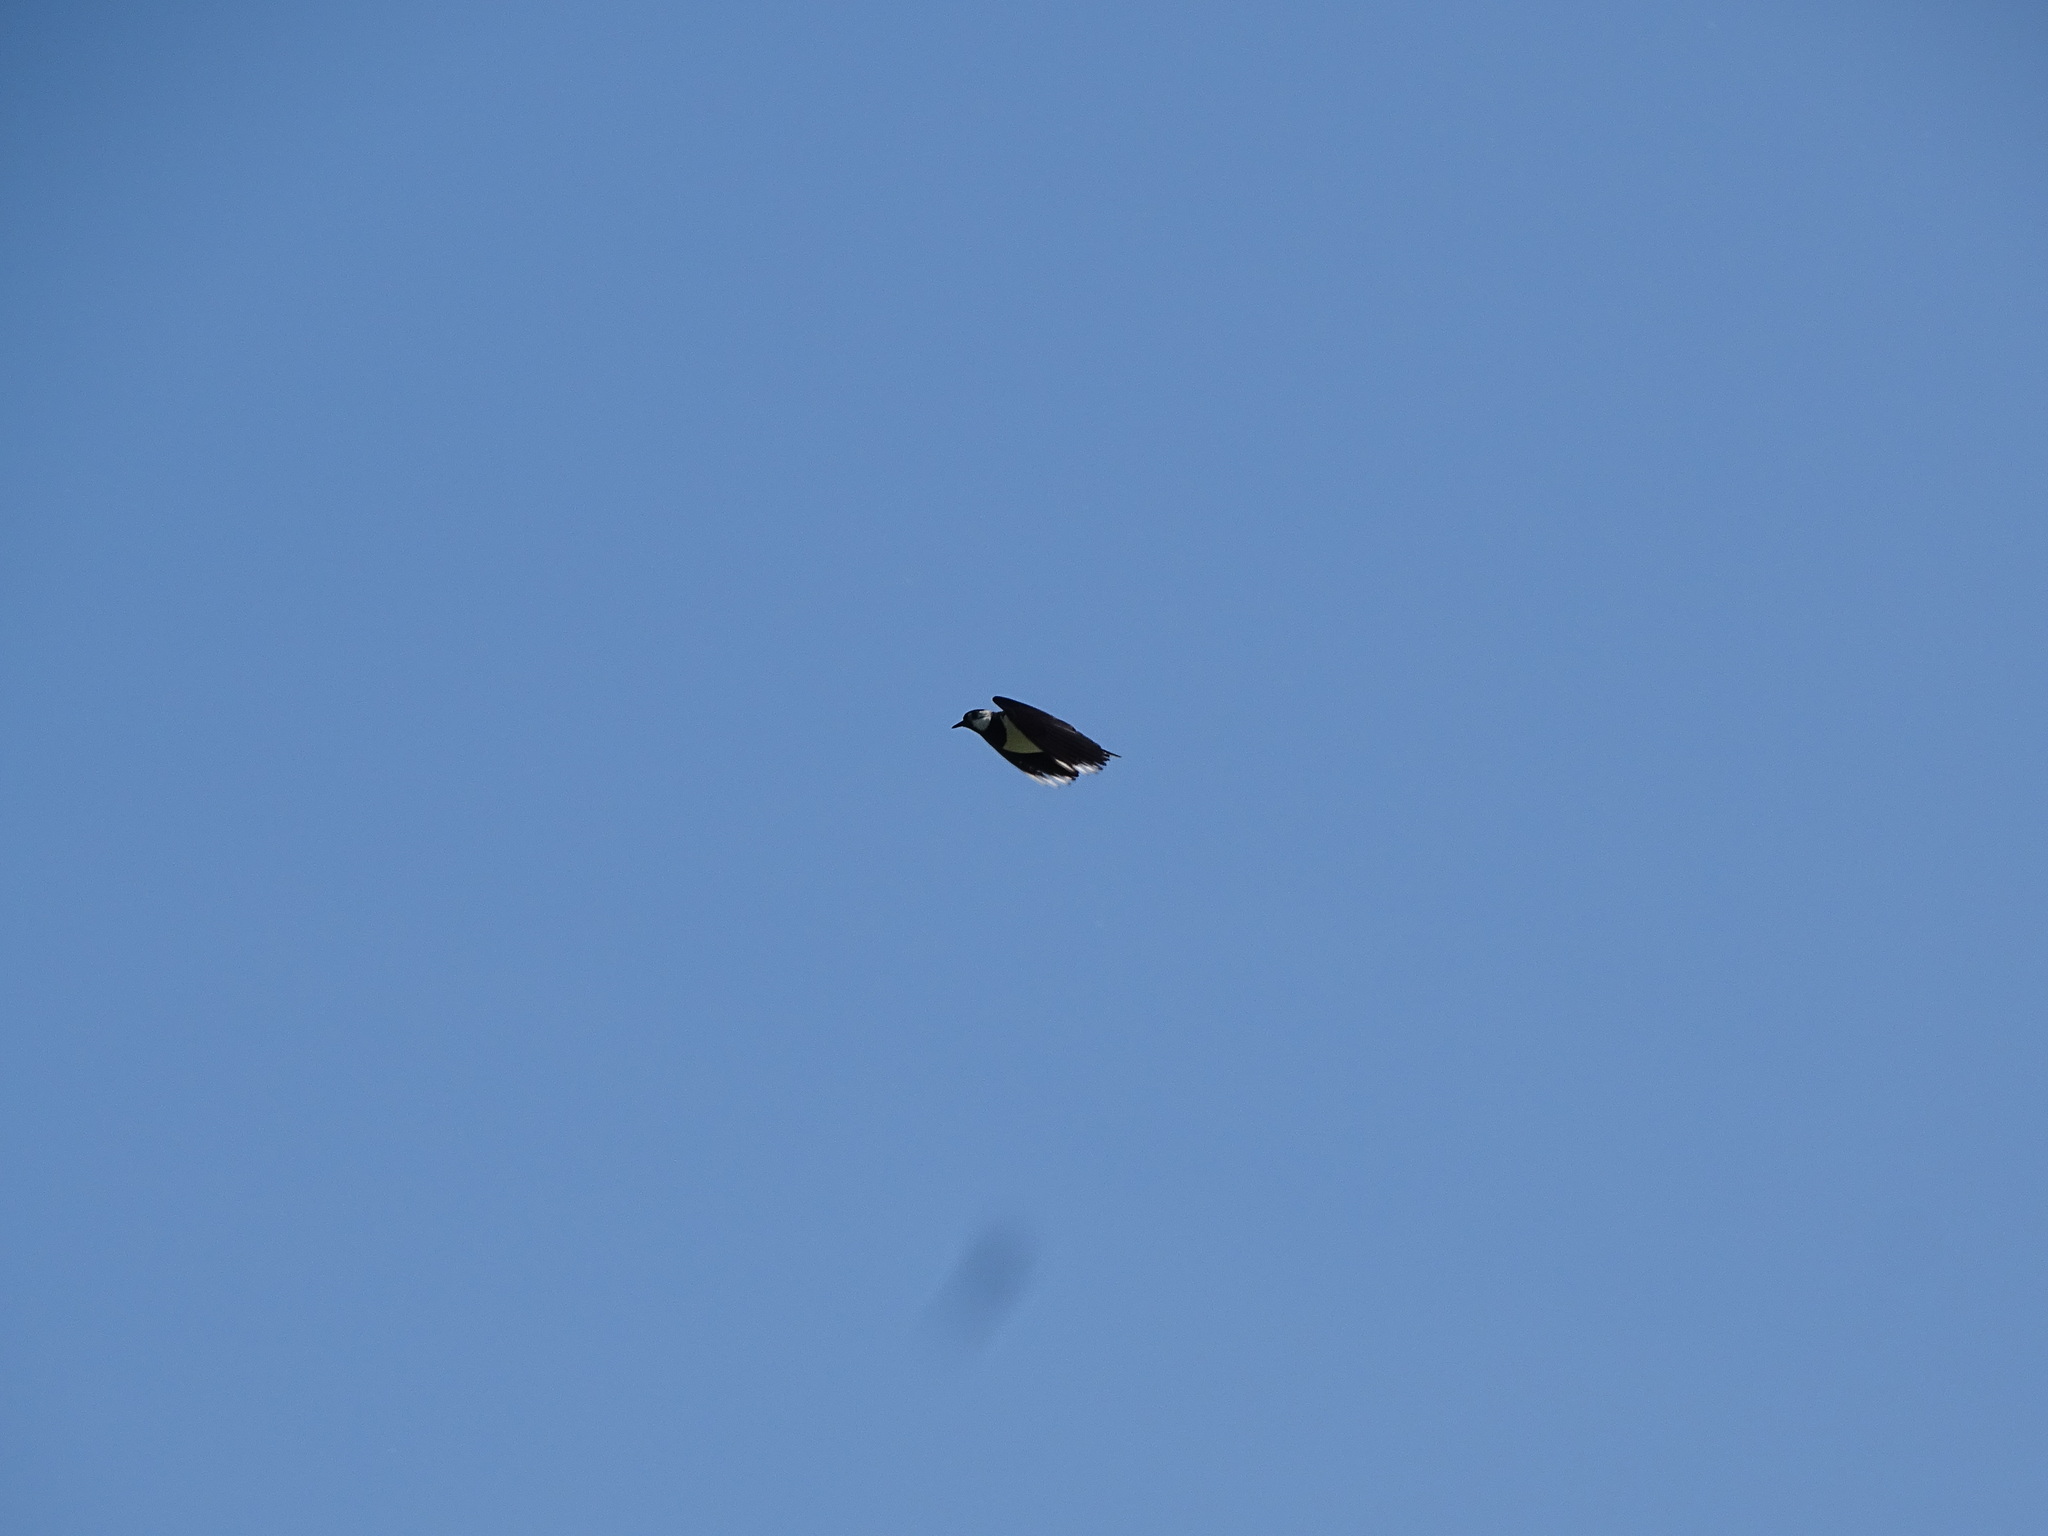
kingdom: Animalia
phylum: Chordata
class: Aves
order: Charadriiformes
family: Charadriidae
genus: Vanellus
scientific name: Vanellus vanellus
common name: Northern lapwing
